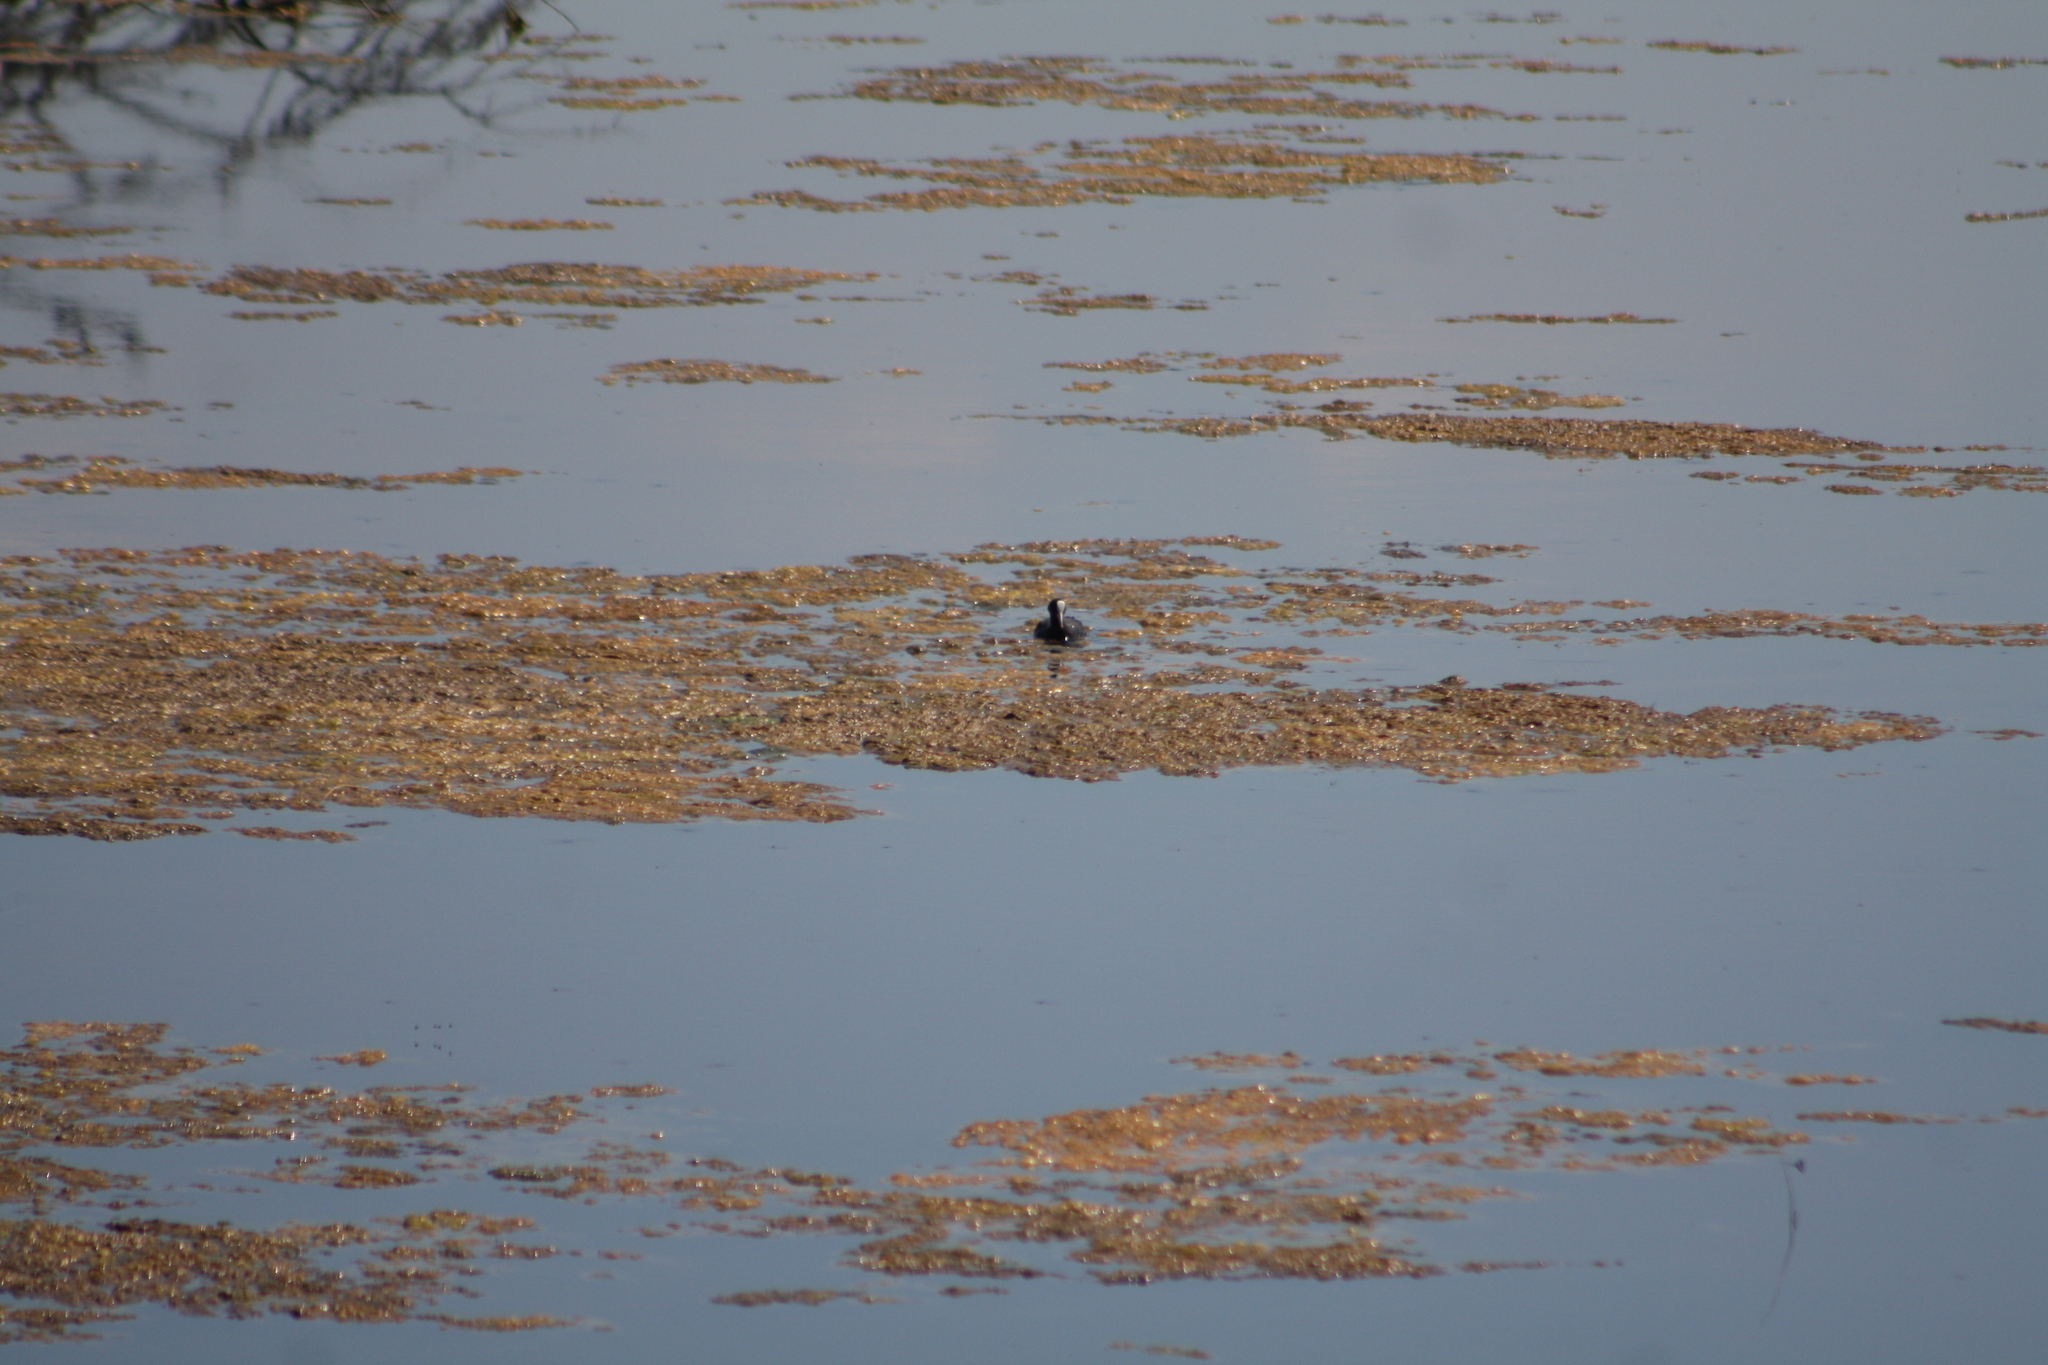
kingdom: Animalia
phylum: Chordata
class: Aves
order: Gruiformes
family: Rallidae
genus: Fulica
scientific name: Fulica atra
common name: Eurasian coot
